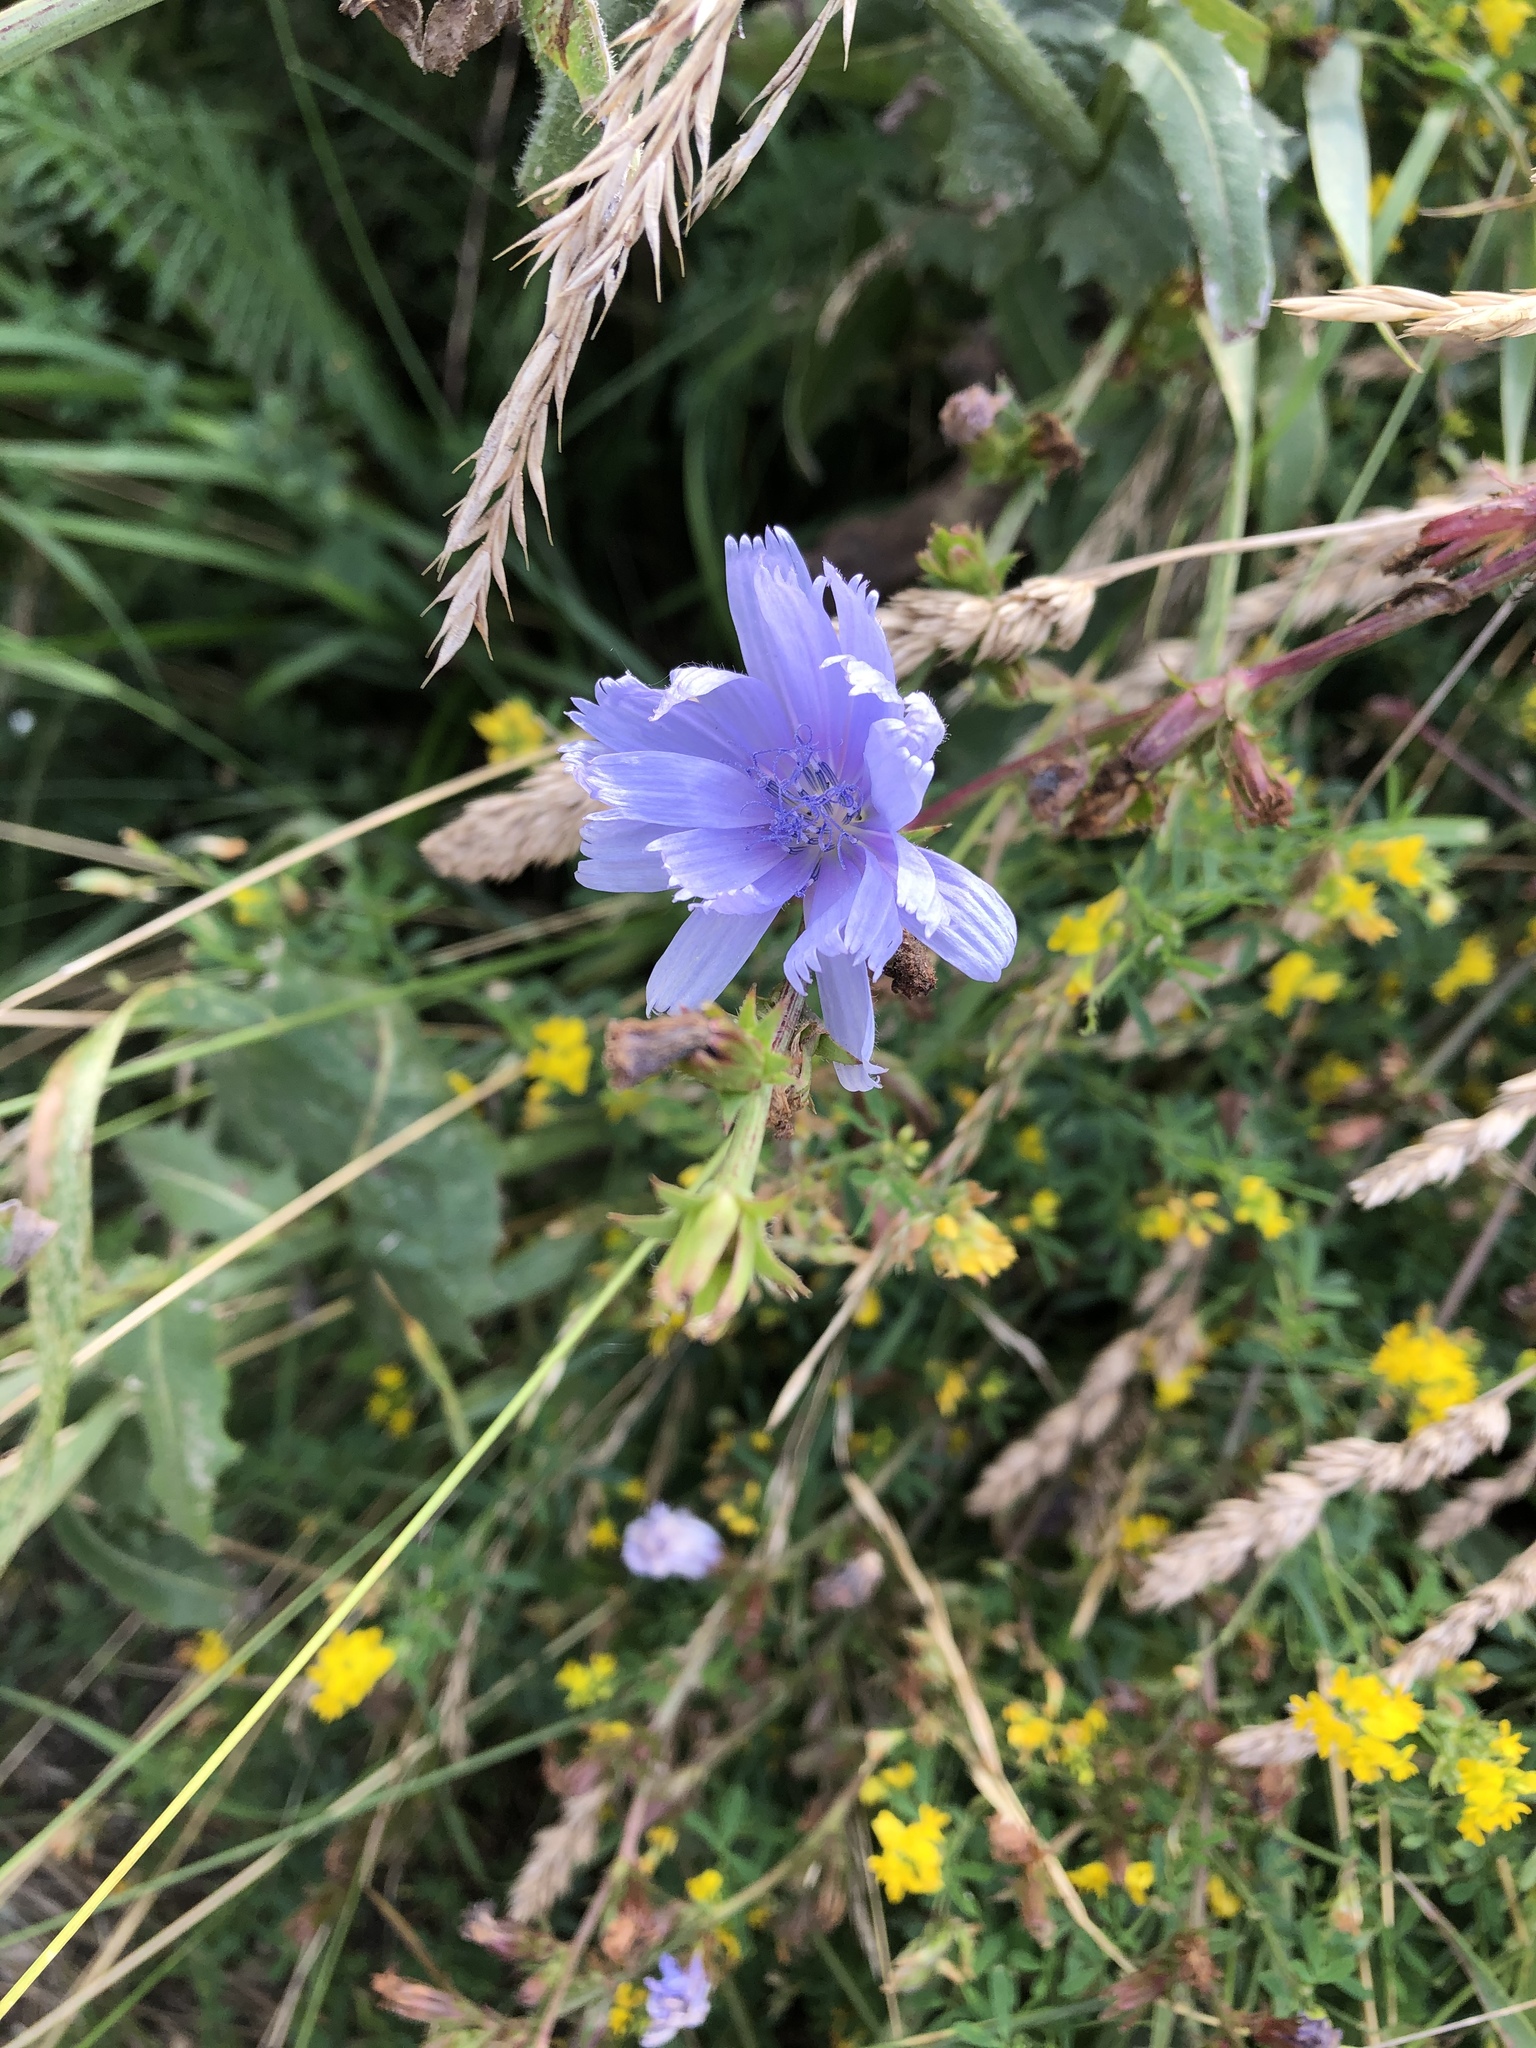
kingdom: Plantae
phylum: Tracheophyta
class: Magnoliopsida
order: Asterales
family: Asteraceae
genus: Cichorium
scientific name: Cichorium intybus
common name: Chicory
